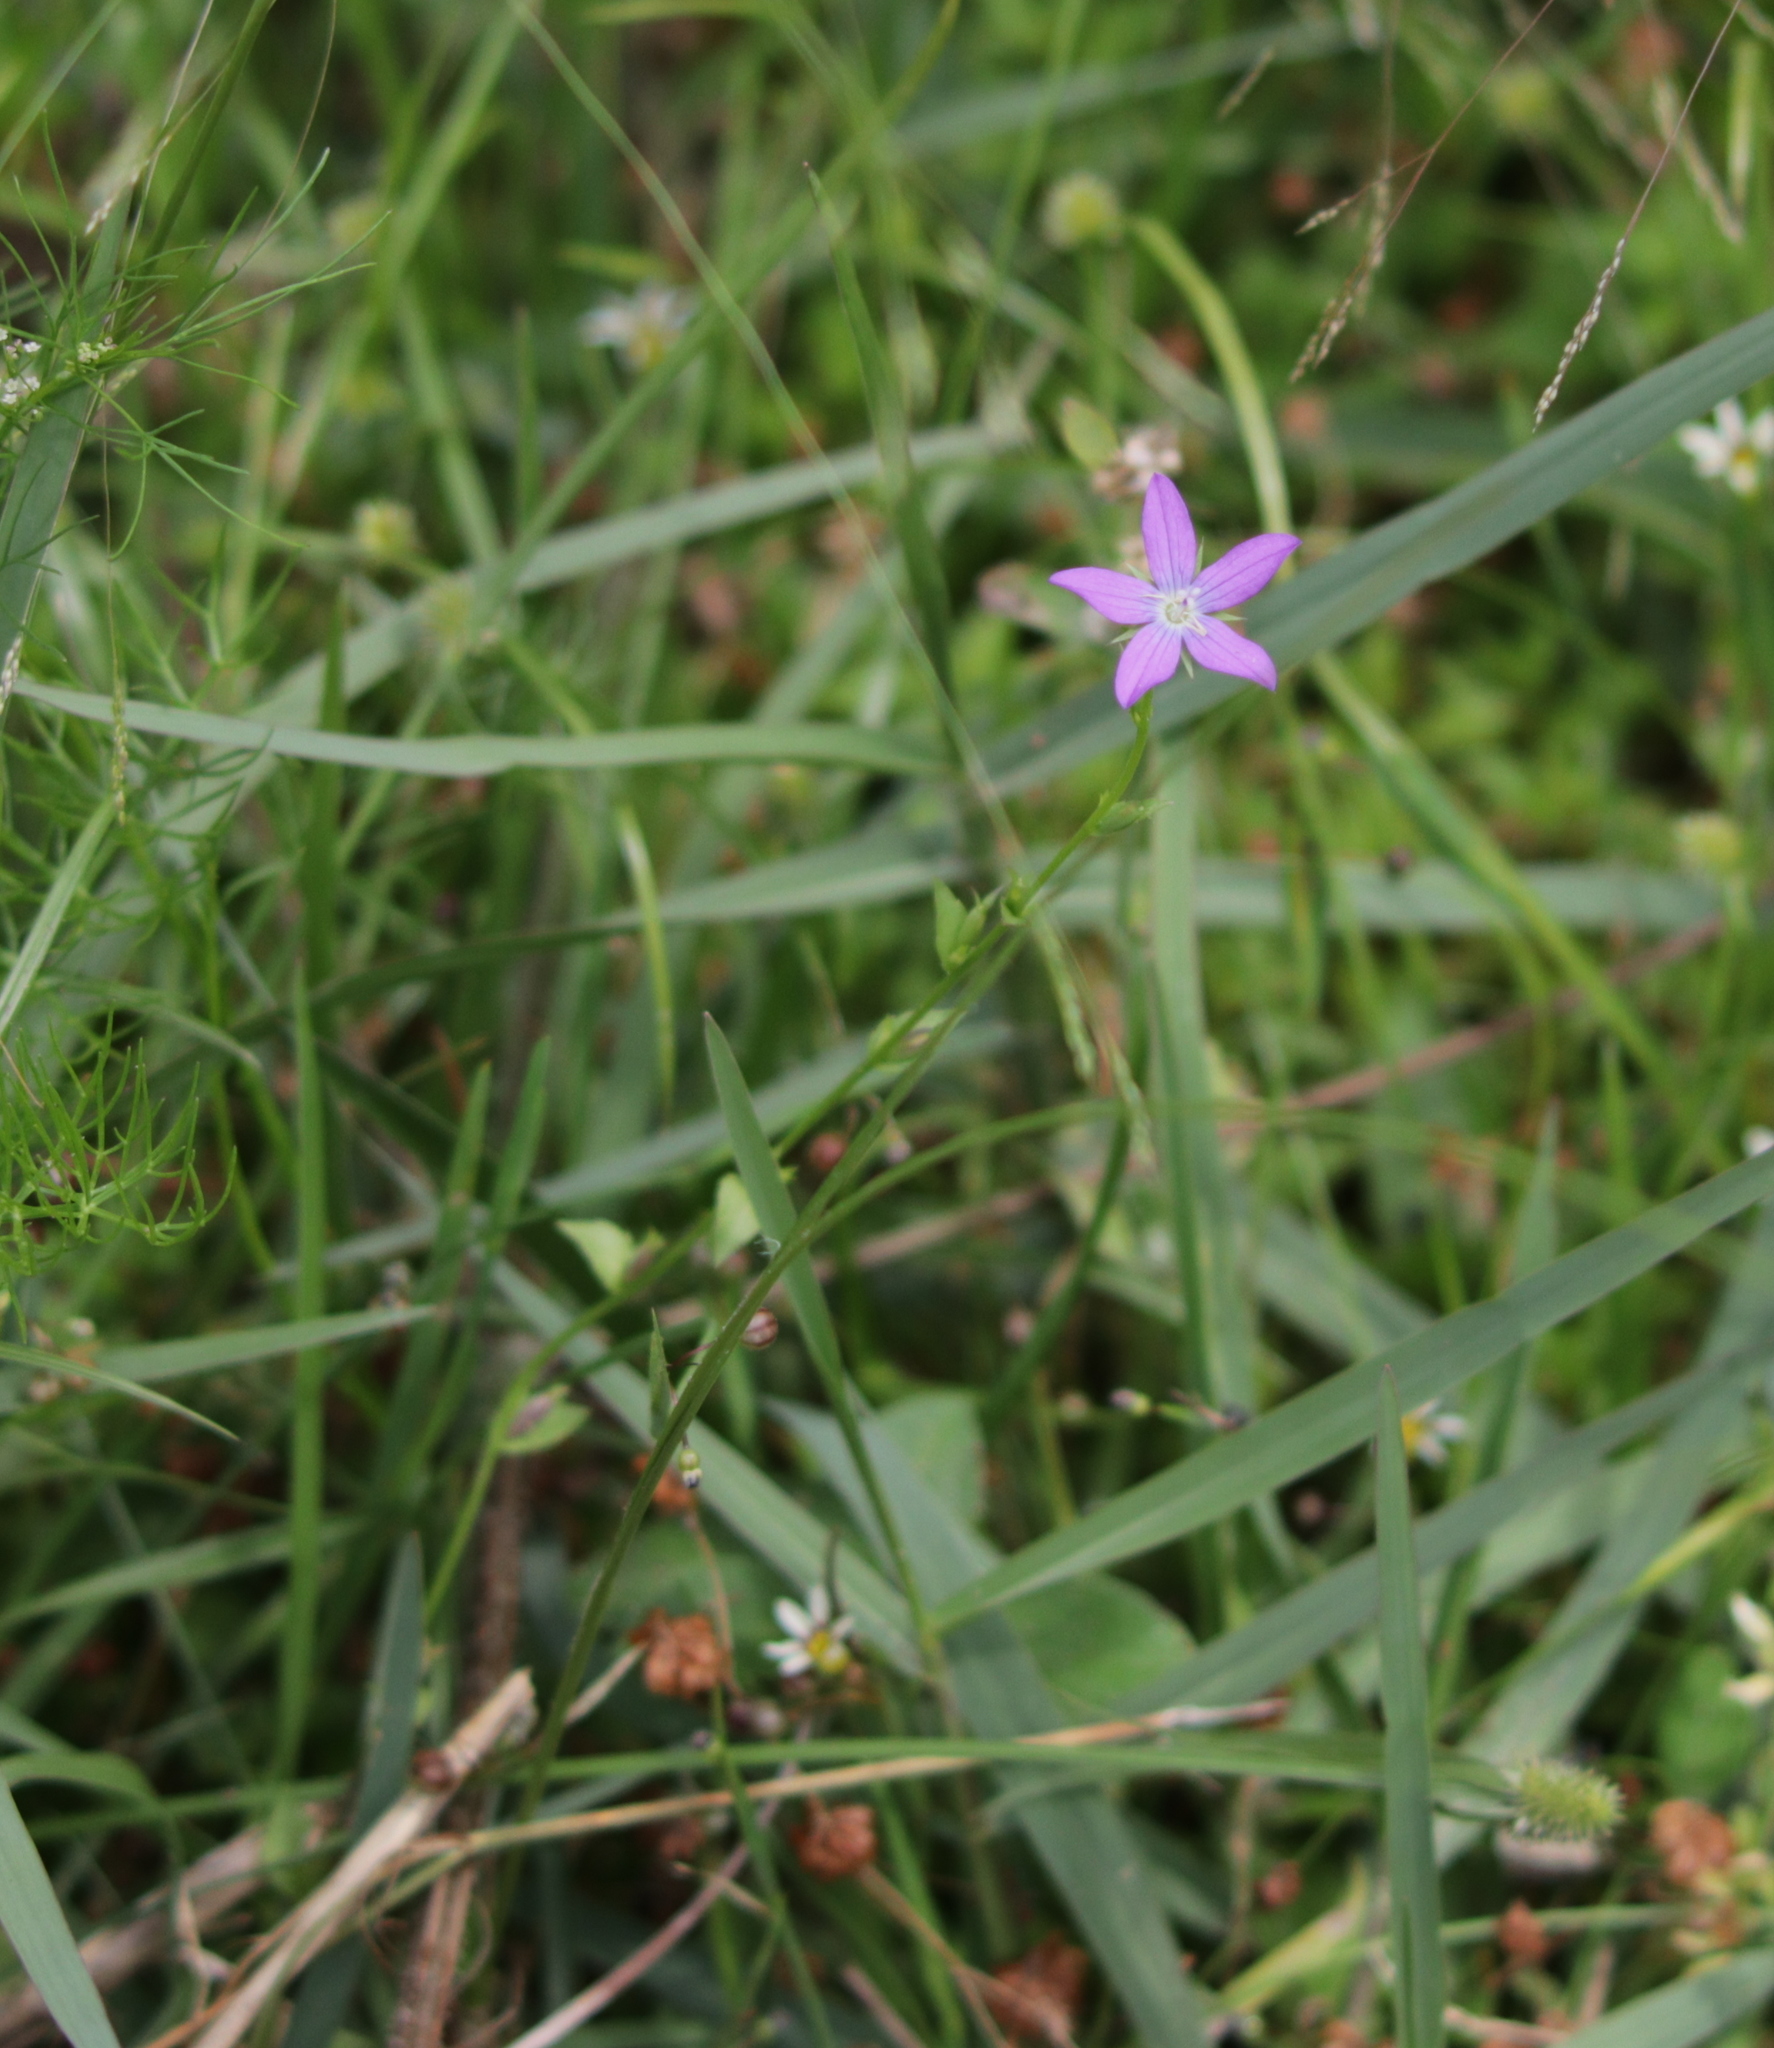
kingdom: Plantae
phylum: Tracheophyta
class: Magnoliopsida
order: Asterales
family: Campanulaceae
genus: Triodanis
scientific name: Triodanis biflora
